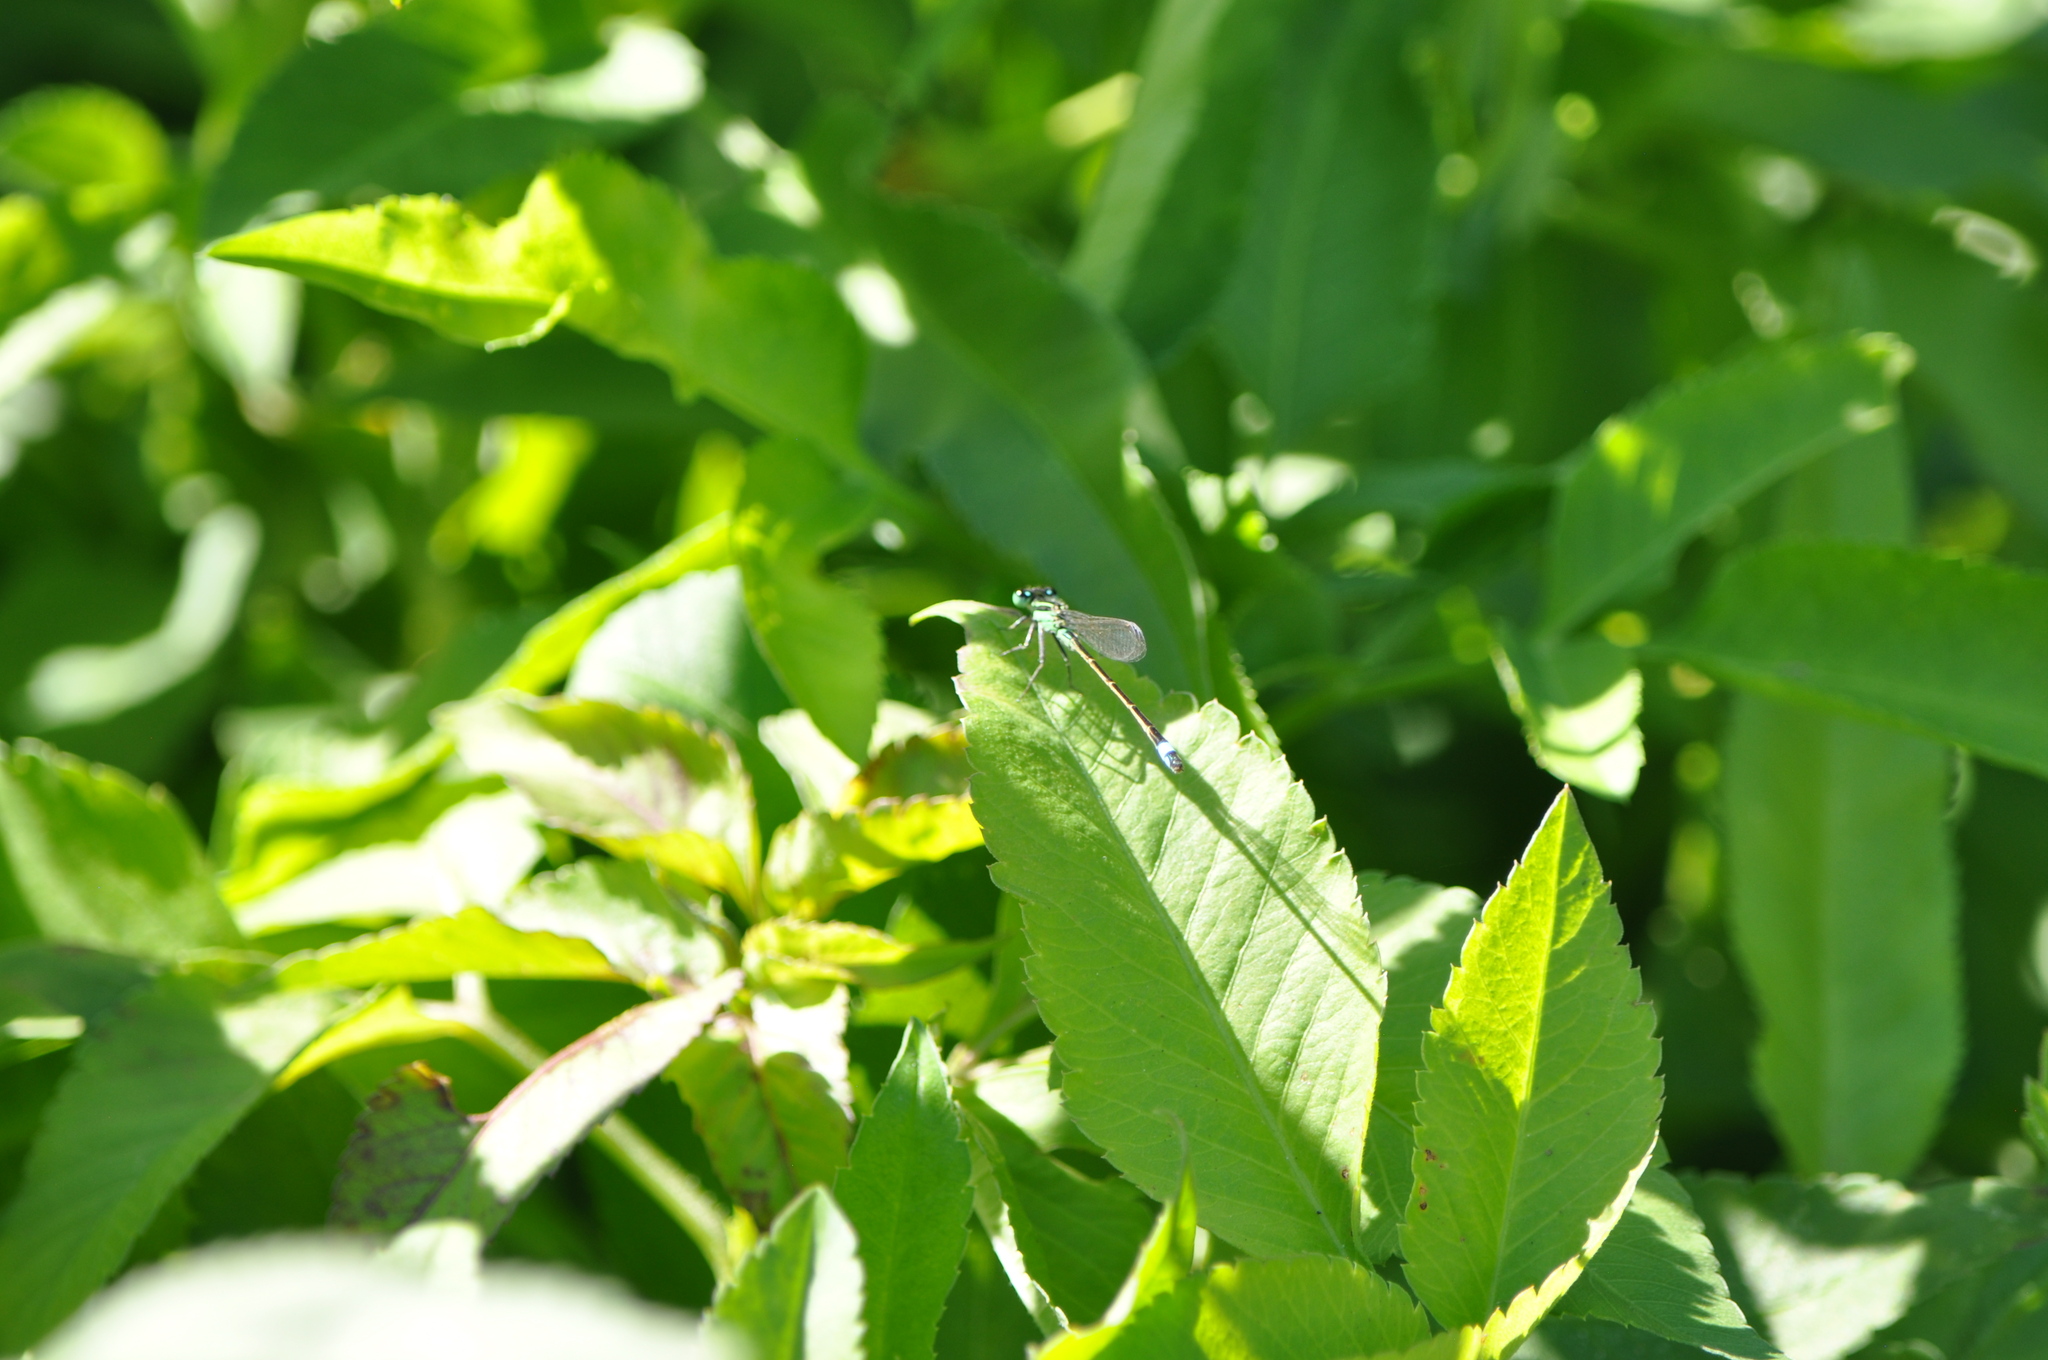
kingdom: Animalia
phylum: Arthropoda
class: Insecta
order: Odonata
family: Coenagrionidae
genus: Ischnura
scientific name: Ischnura ramburii
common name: Rambur's forktail
